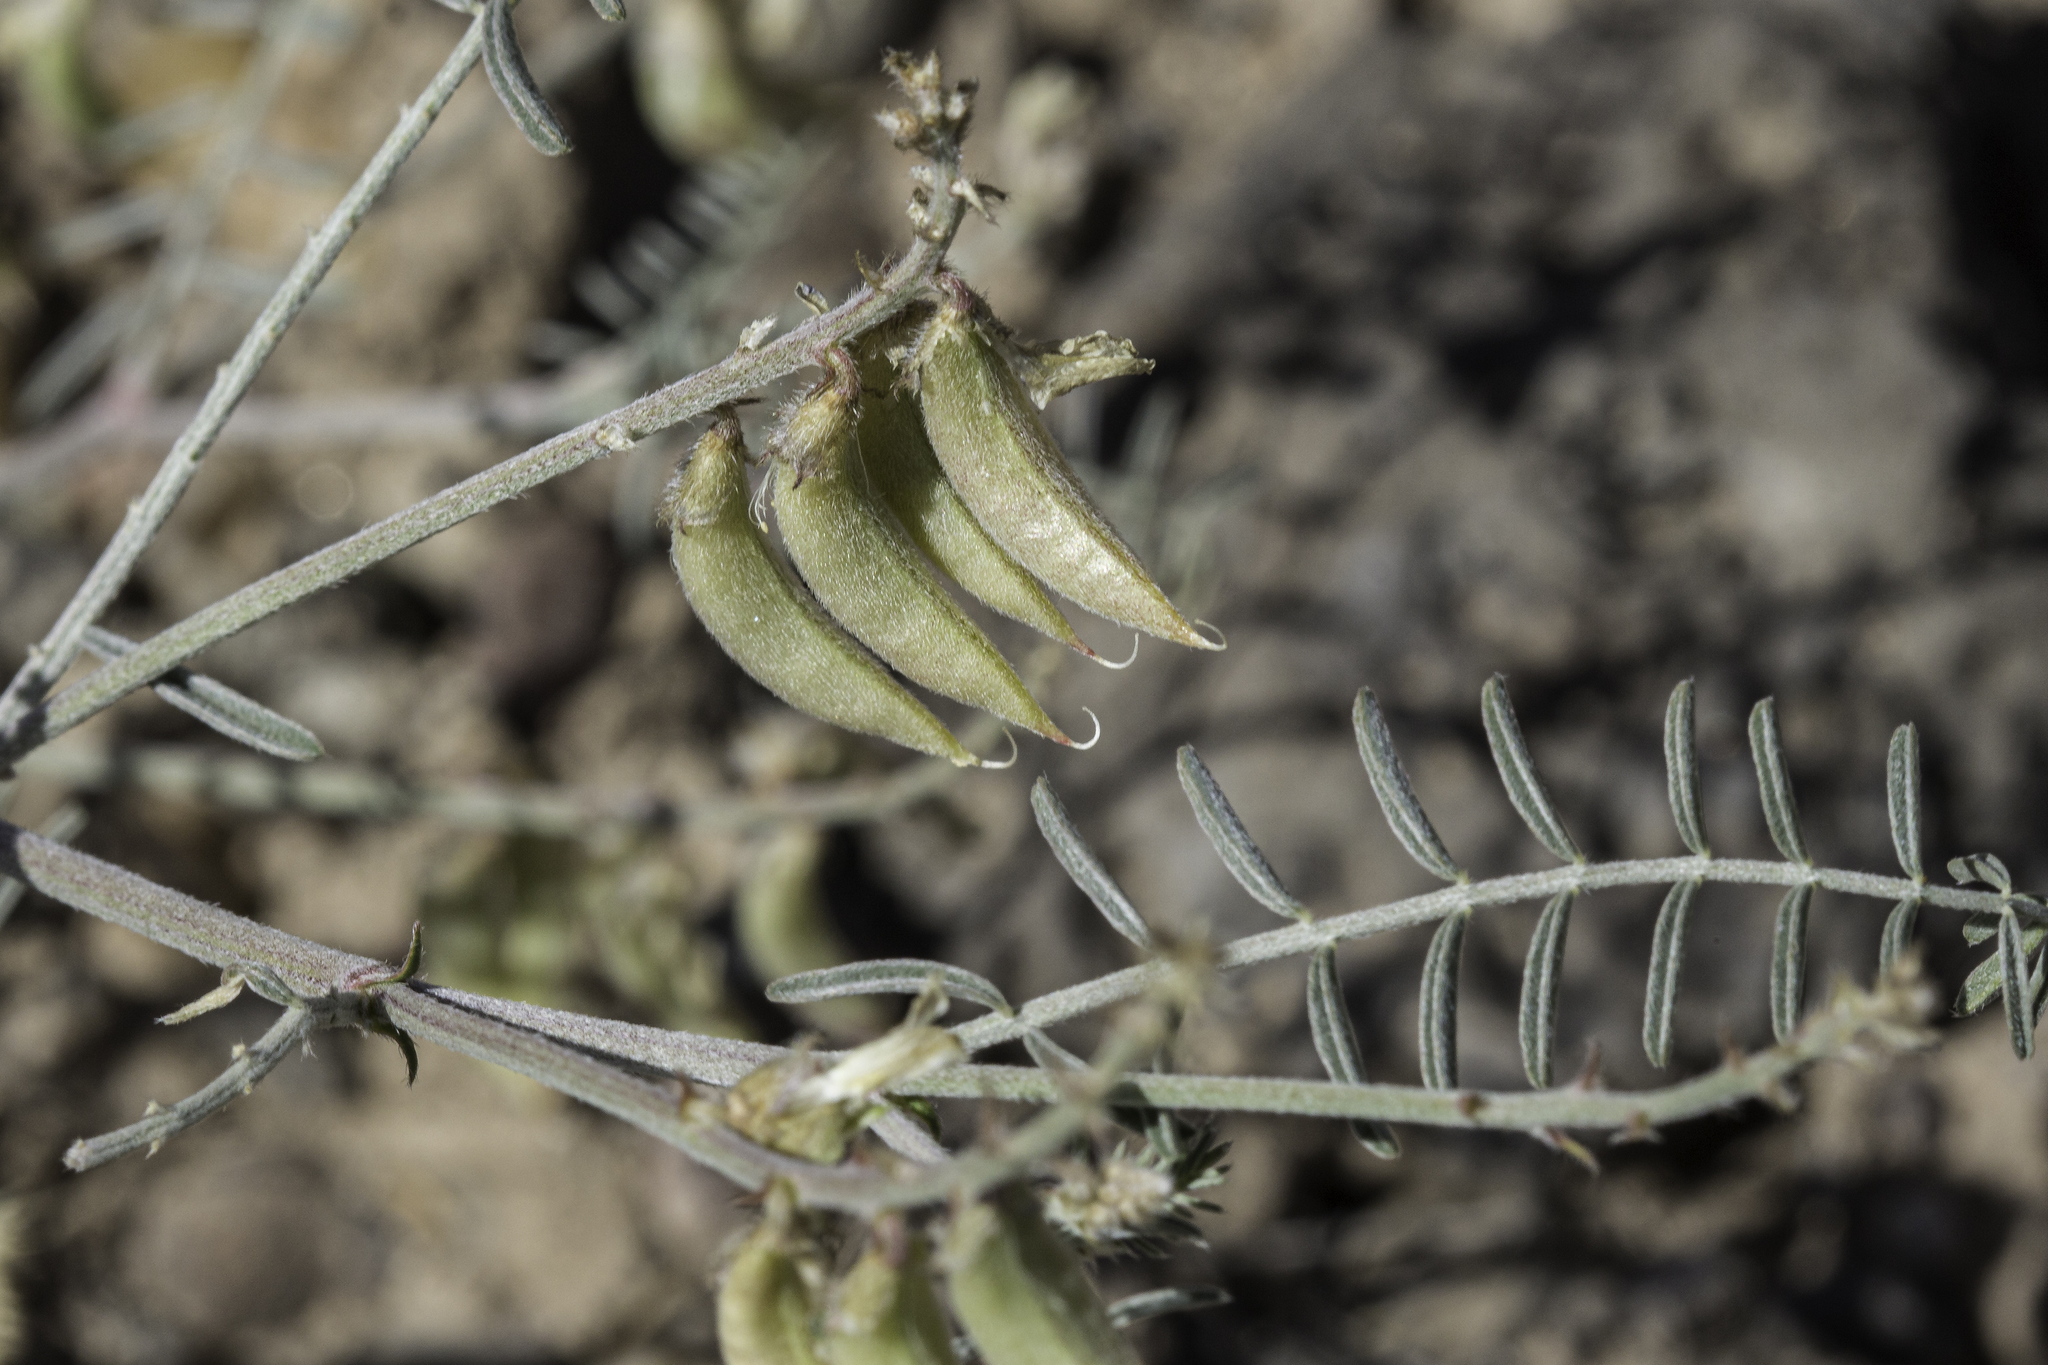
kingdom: Plantae
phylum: Tracheophyta
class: Magnoliopsida
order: Fabales
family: Fabaceae
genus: Astragalus
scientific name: Astragalus flexuosus
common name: Pliant milk-vetch
